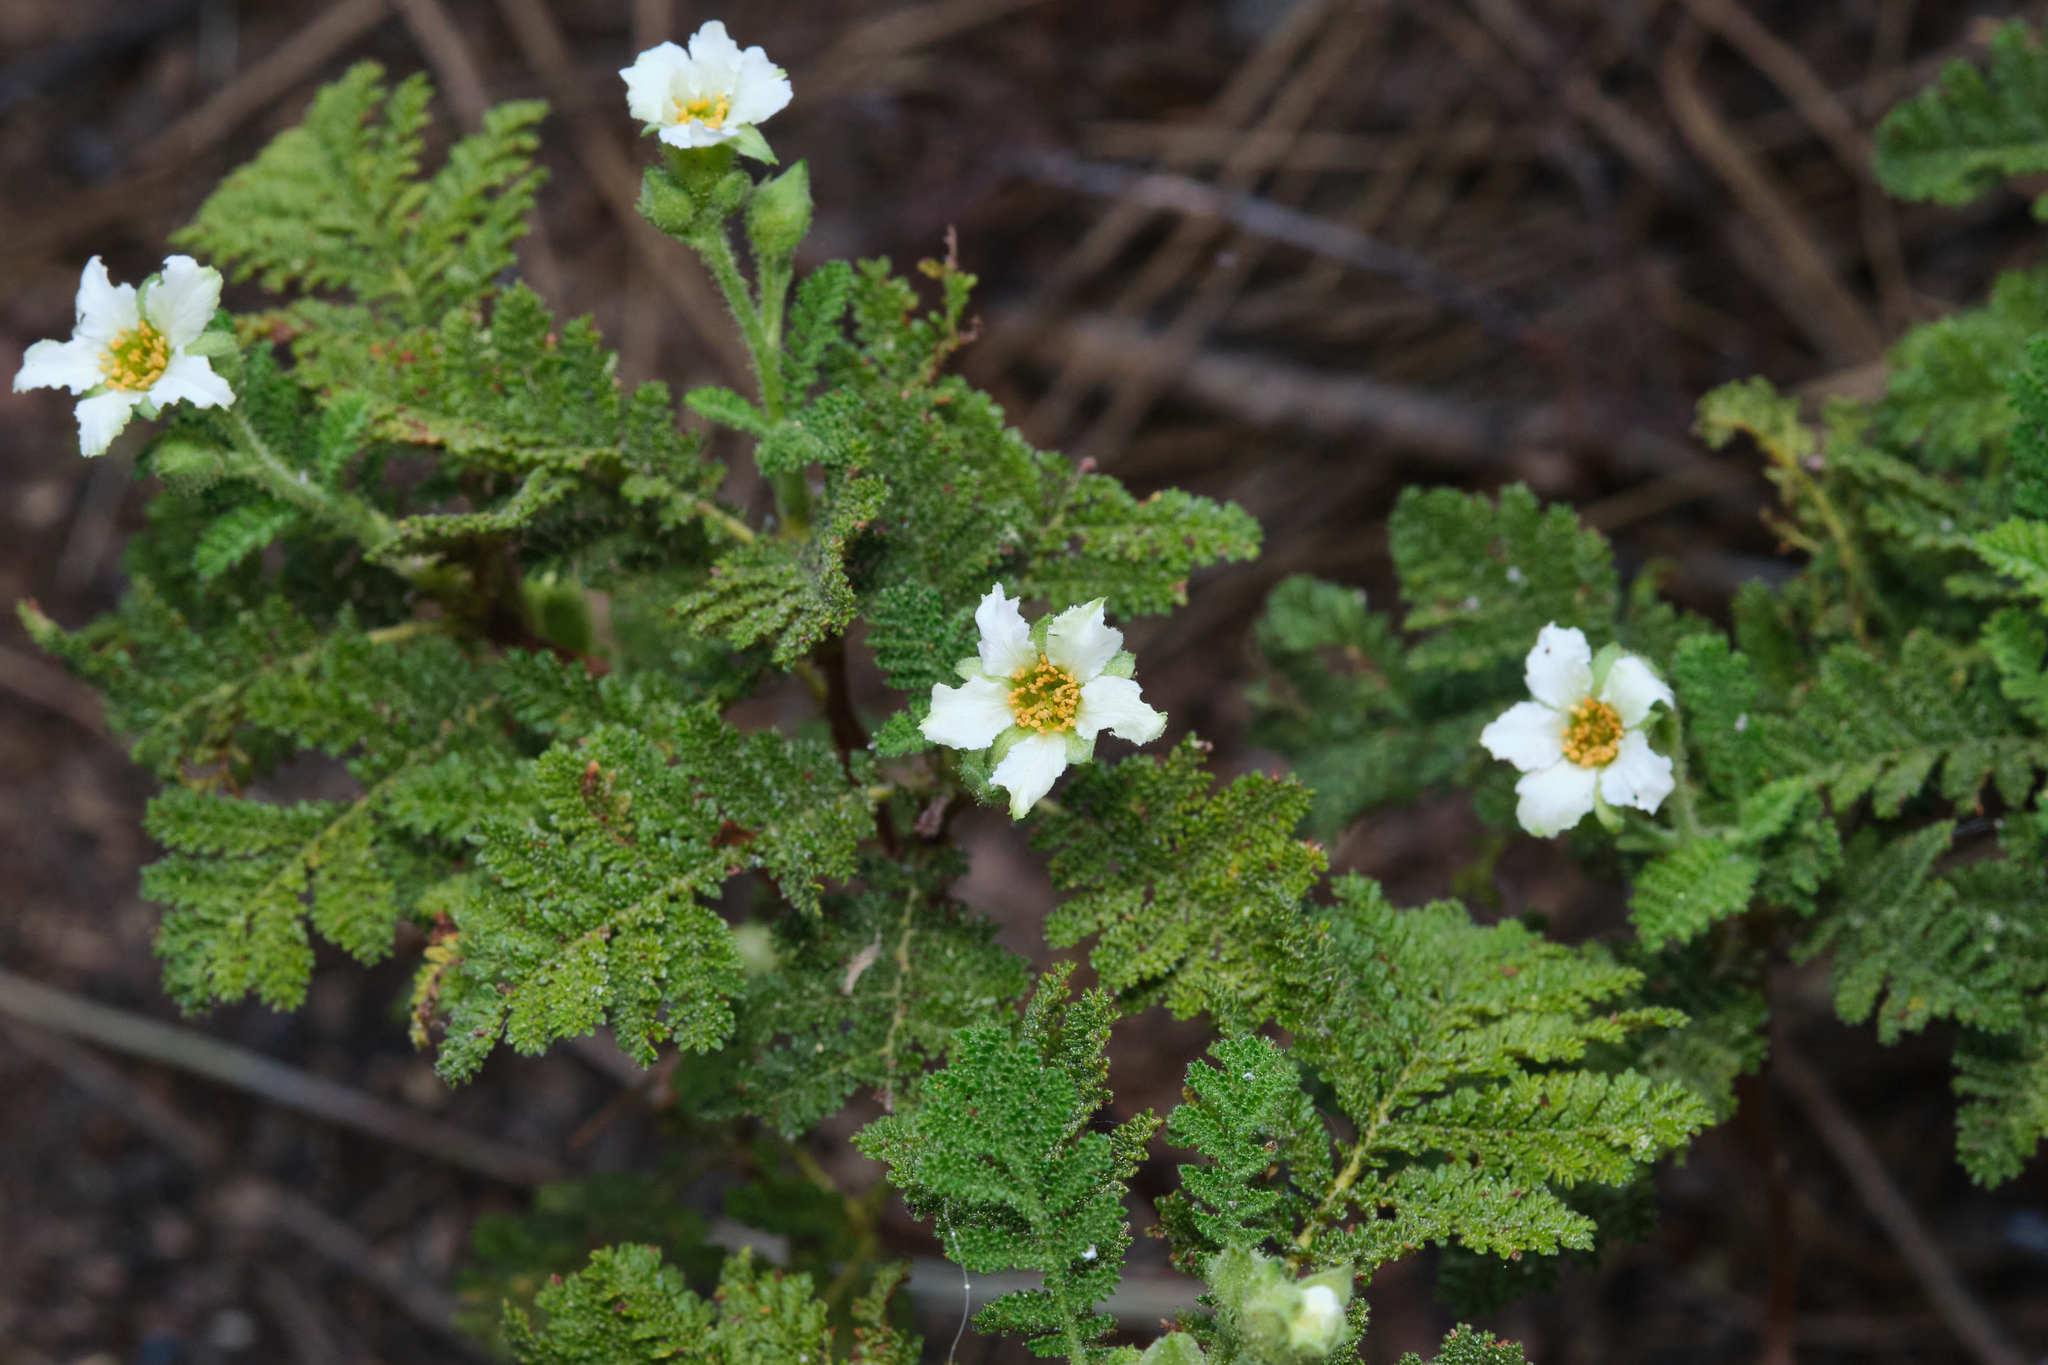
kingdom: Plantae
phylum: Tracheophyta
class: Magnoliopsida
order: Rosales
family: Rosaceae
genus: Chamaebatia
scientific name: Chamaebatia foliolosa
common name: Mountain misery
